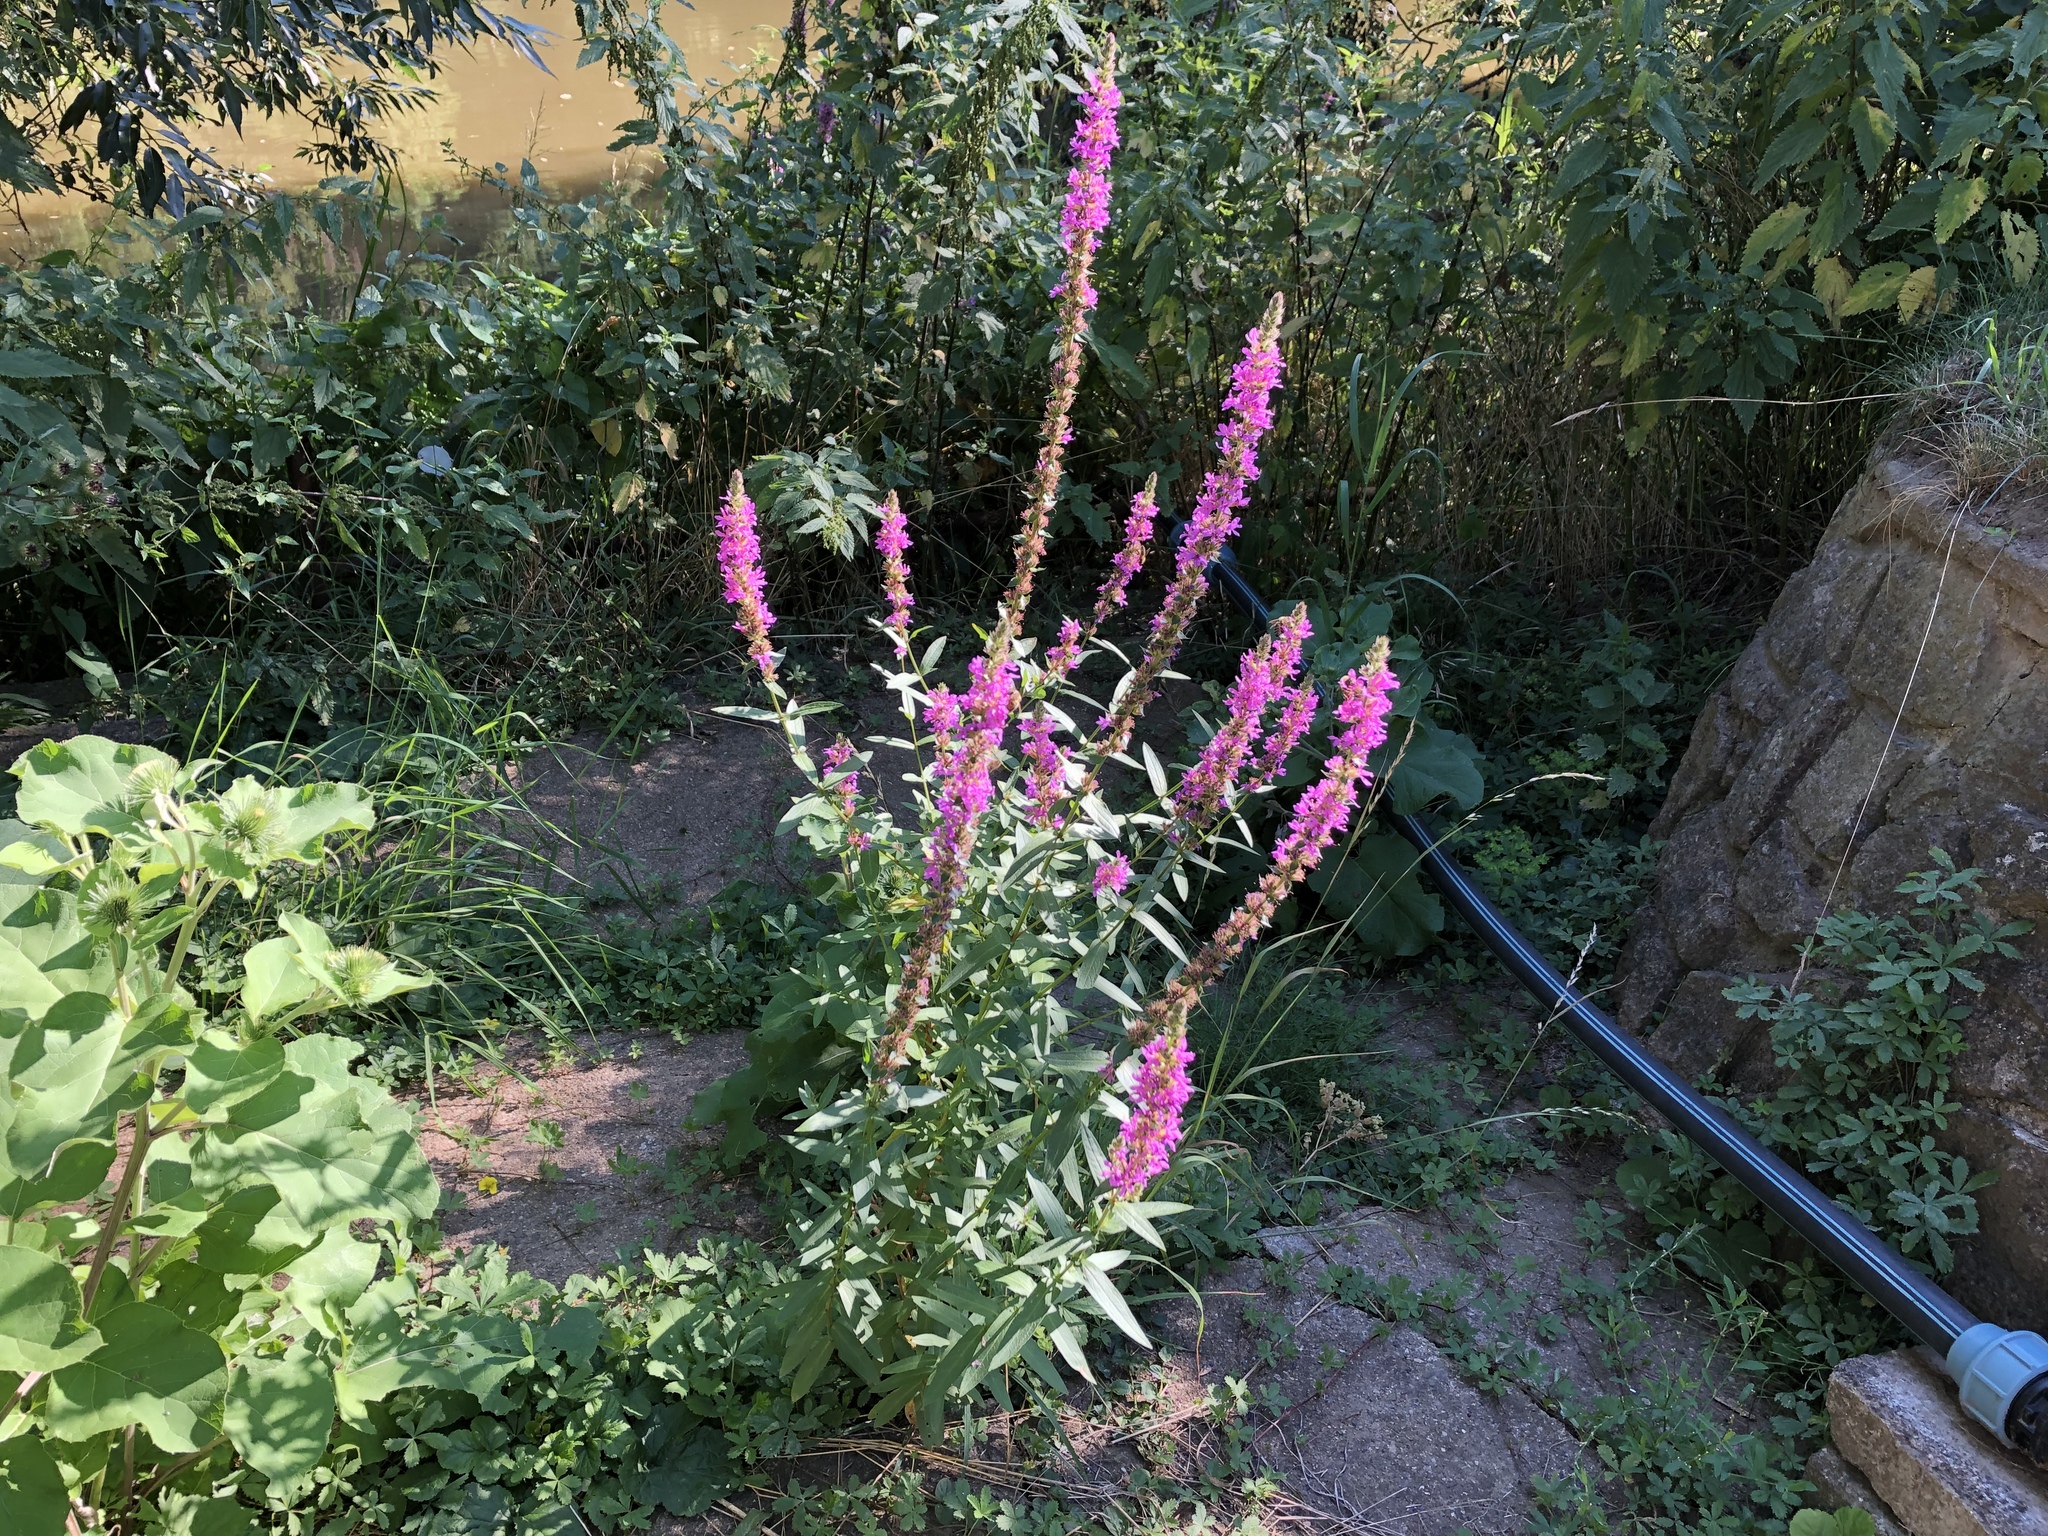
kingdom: Plantae
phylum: Tracheophyta
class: Magnoliopsida
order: Myrtales
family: Lythraceae
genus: Lythrum
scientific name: Lythrum salicaria
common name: Purple loosestrife
